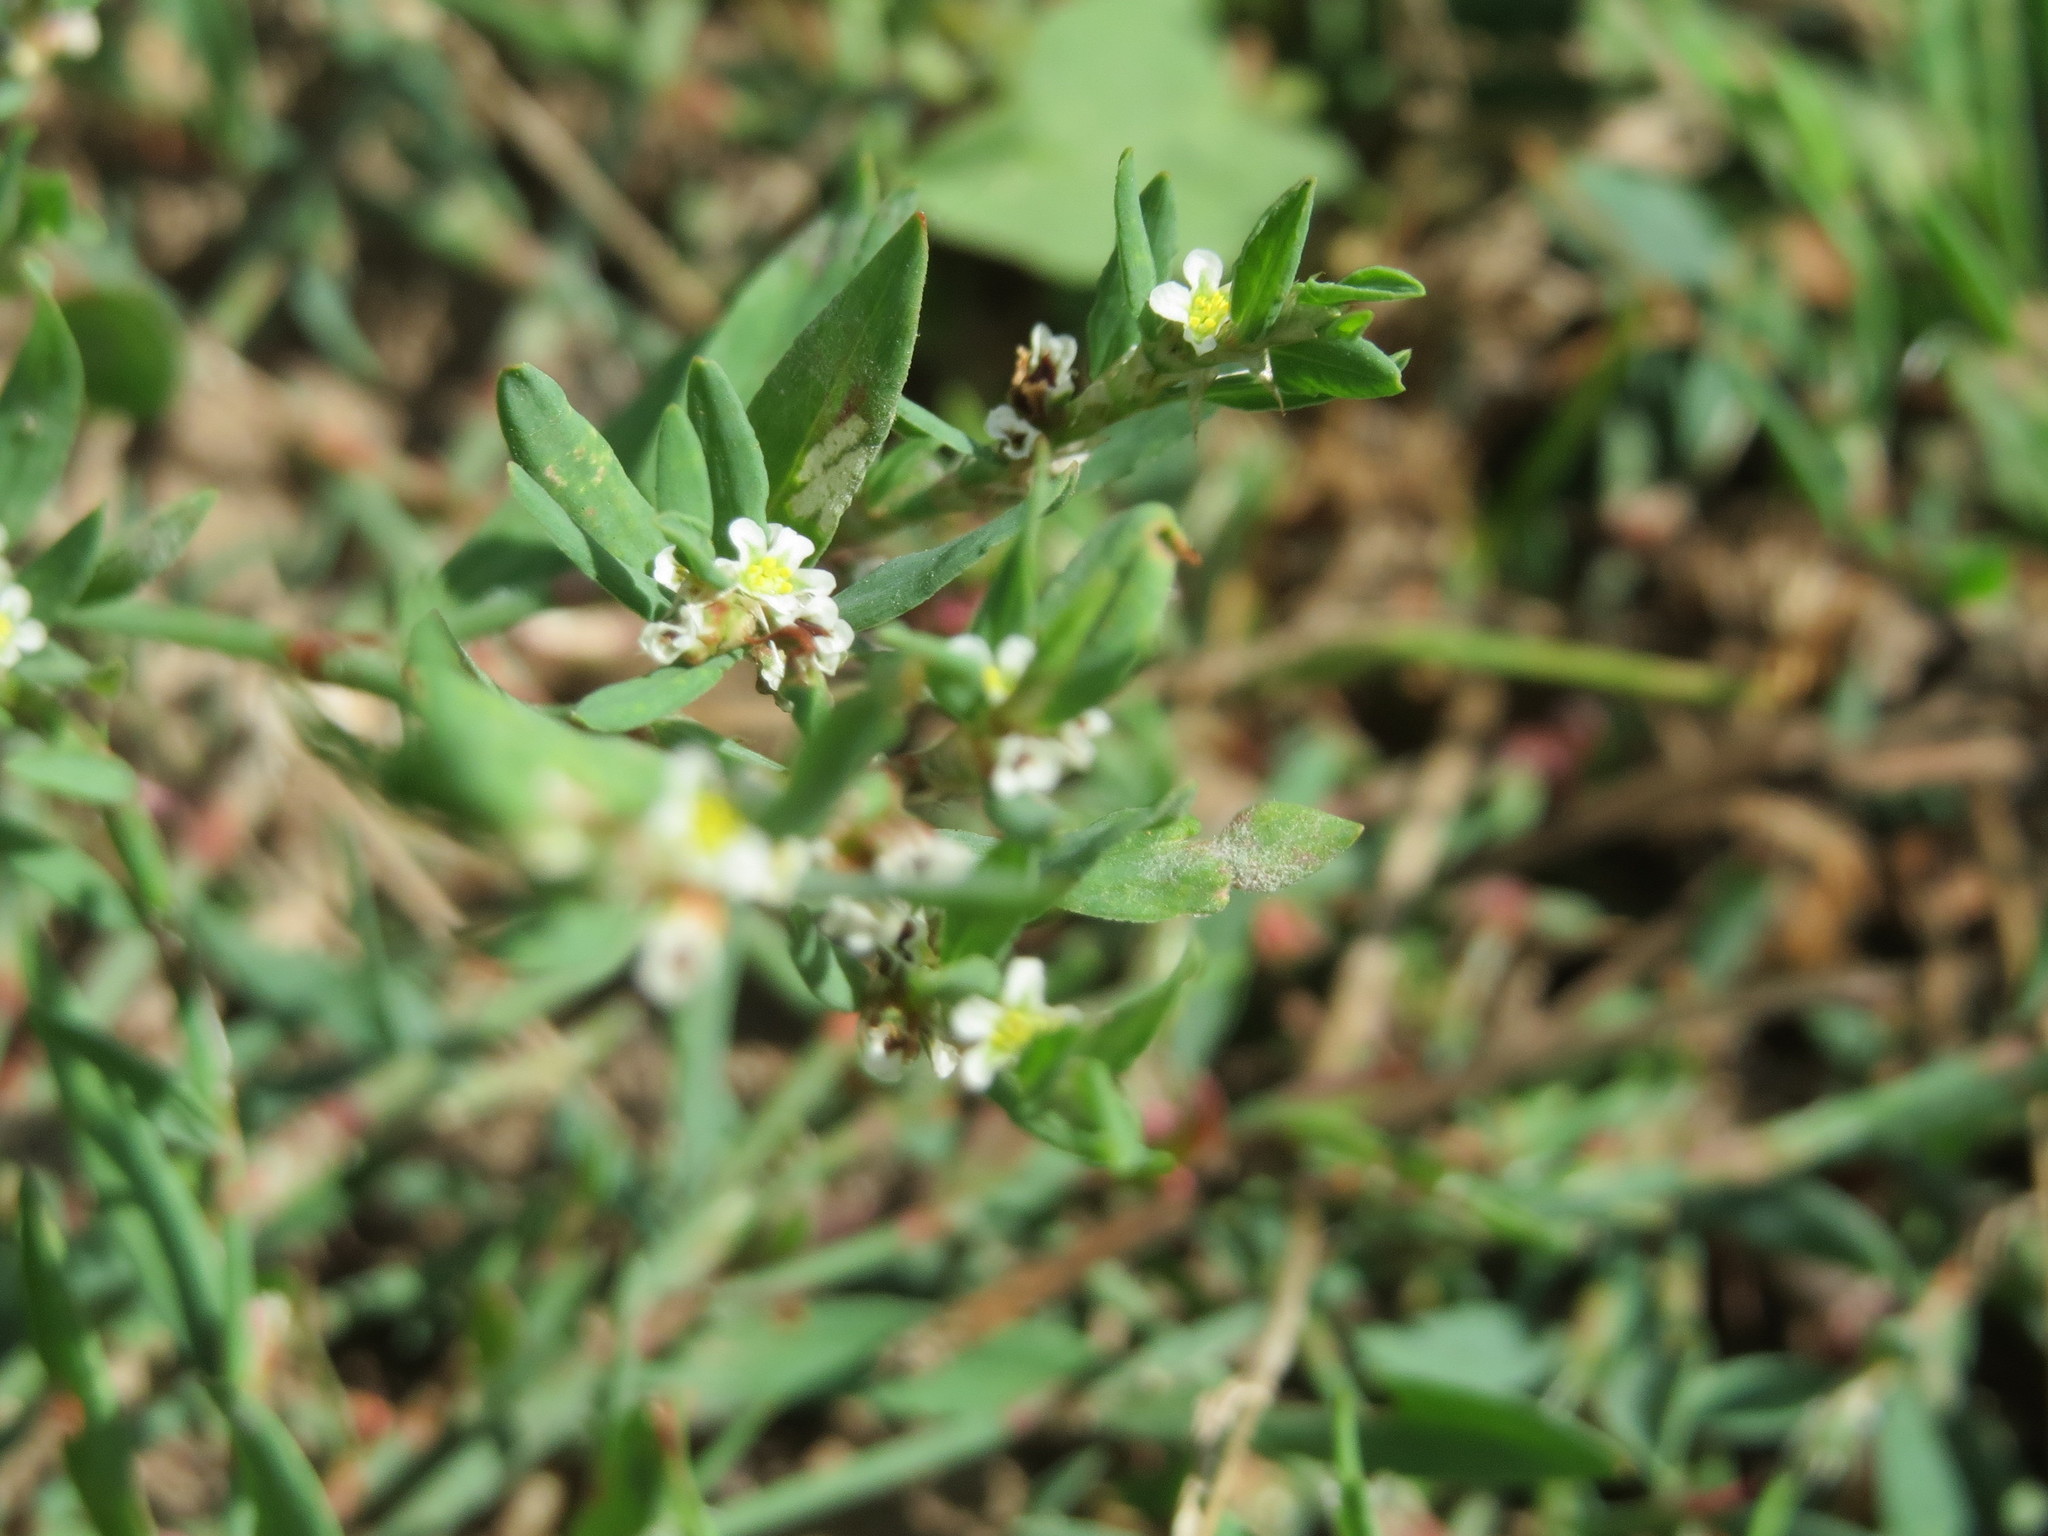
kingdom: Plantae
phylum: Tracheophyta
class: Magnoliopsida
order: Caryophyllales
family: Polygonaceae
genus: Polygonum
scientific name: Polygonum aviculare
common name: Prostrate knotweed
